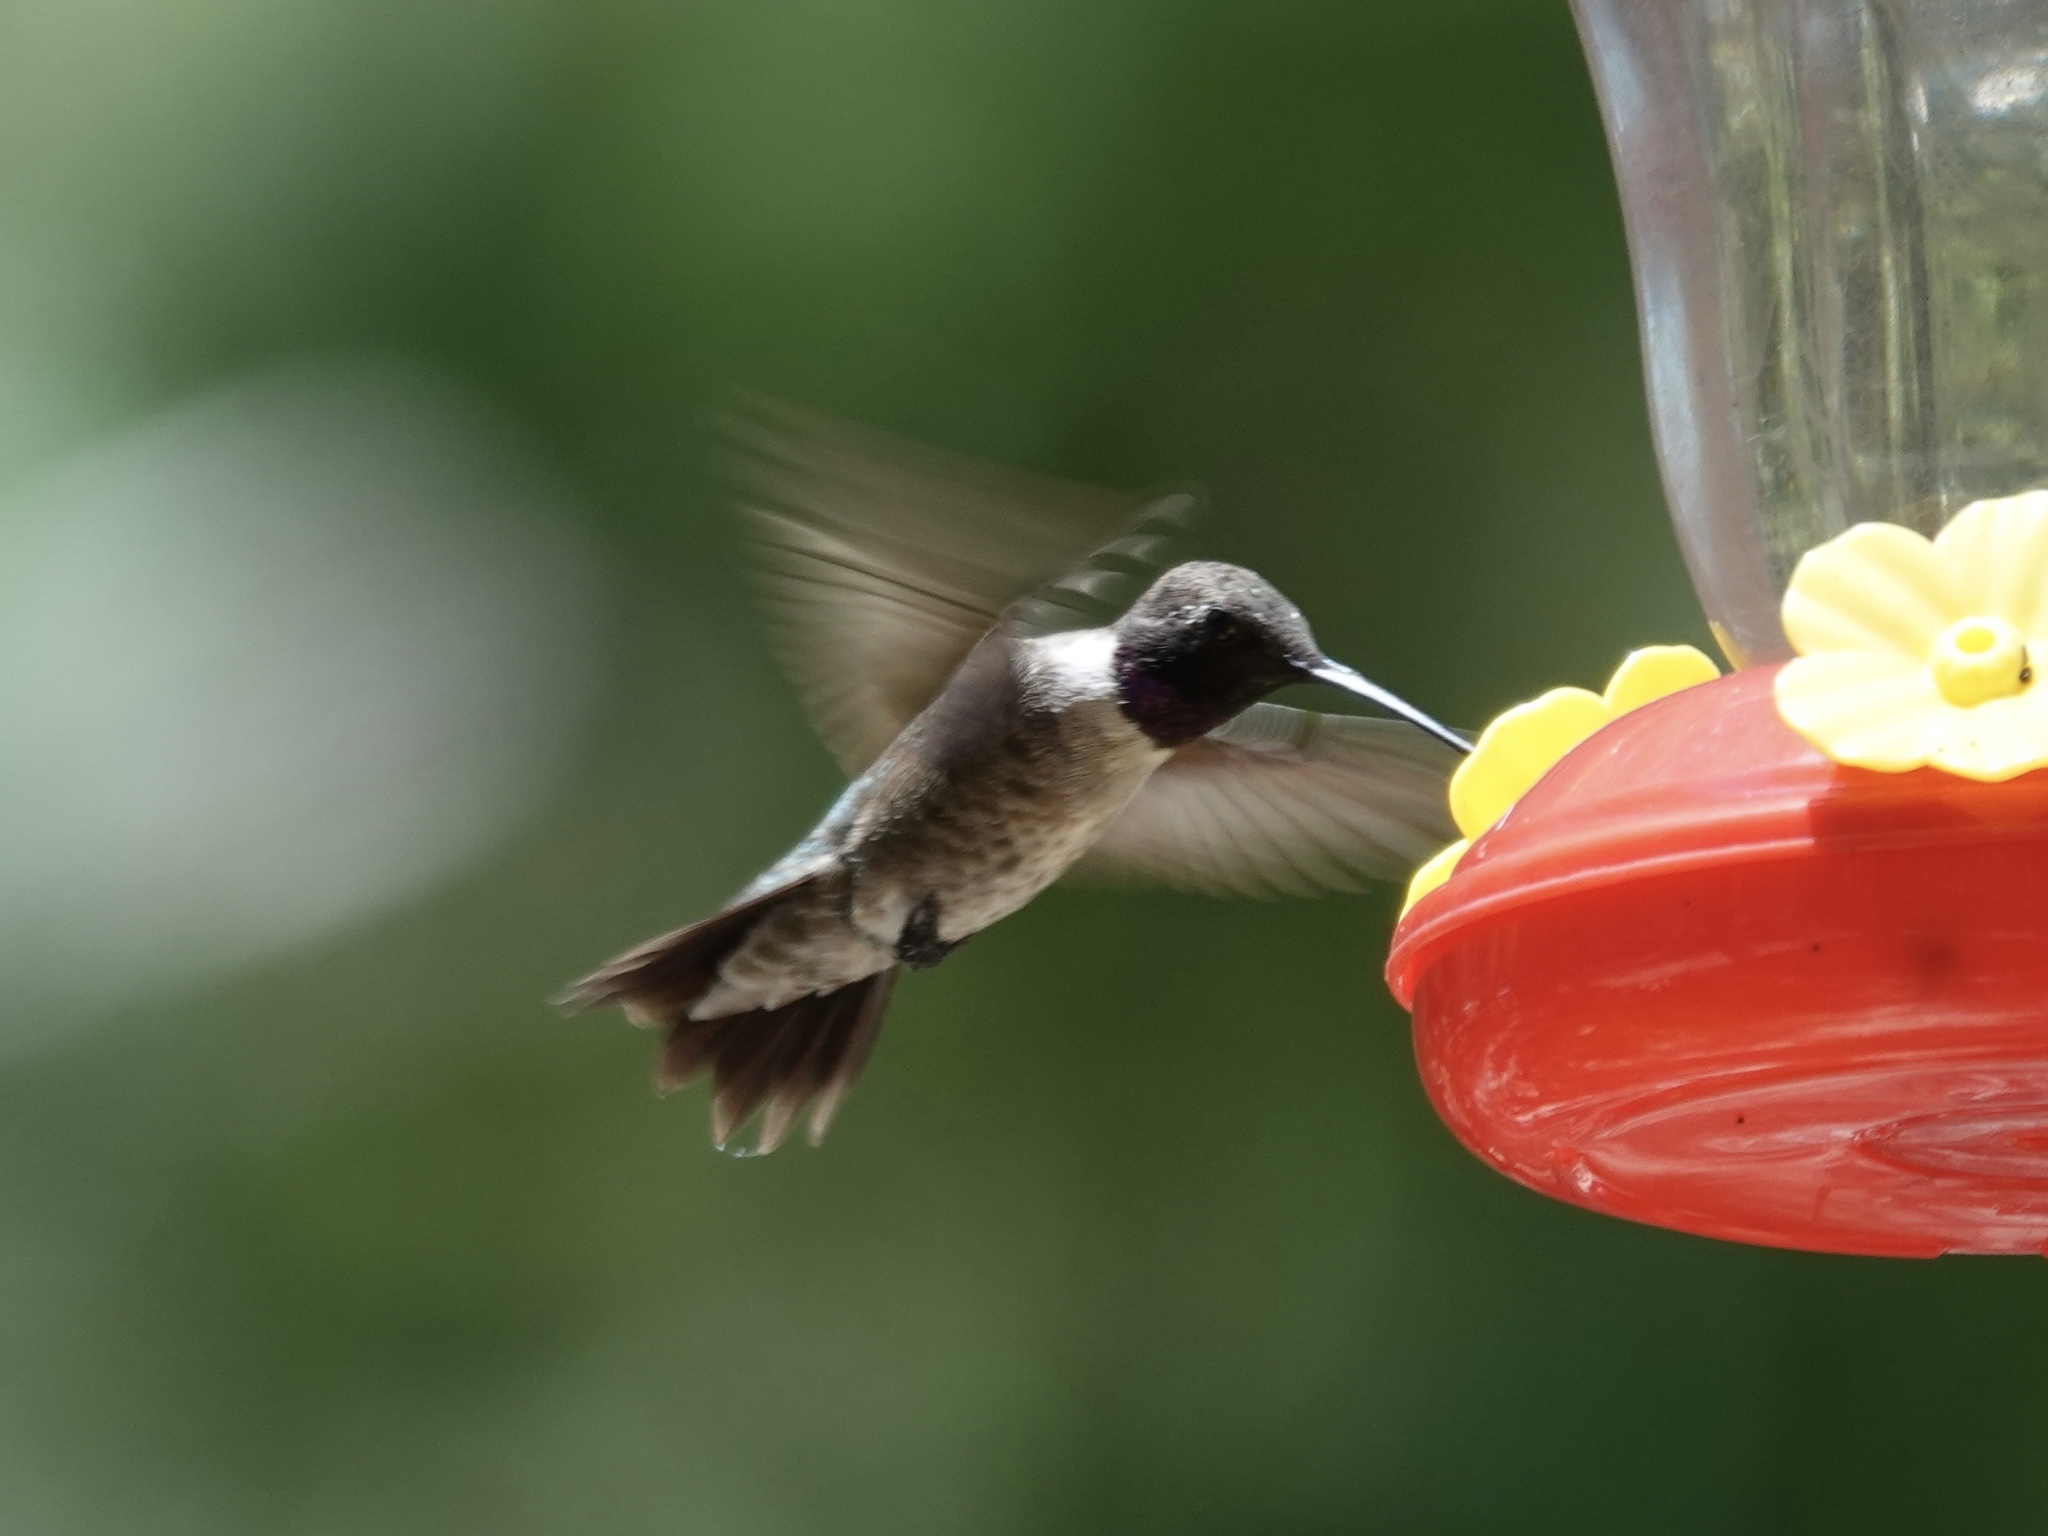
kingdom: Animalia
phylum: Chordata
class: Aves
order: Apodiformes
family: Trochilidae
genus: Archilochus
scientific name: Archilochus alexandri
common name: Black-chinned hummingbird
